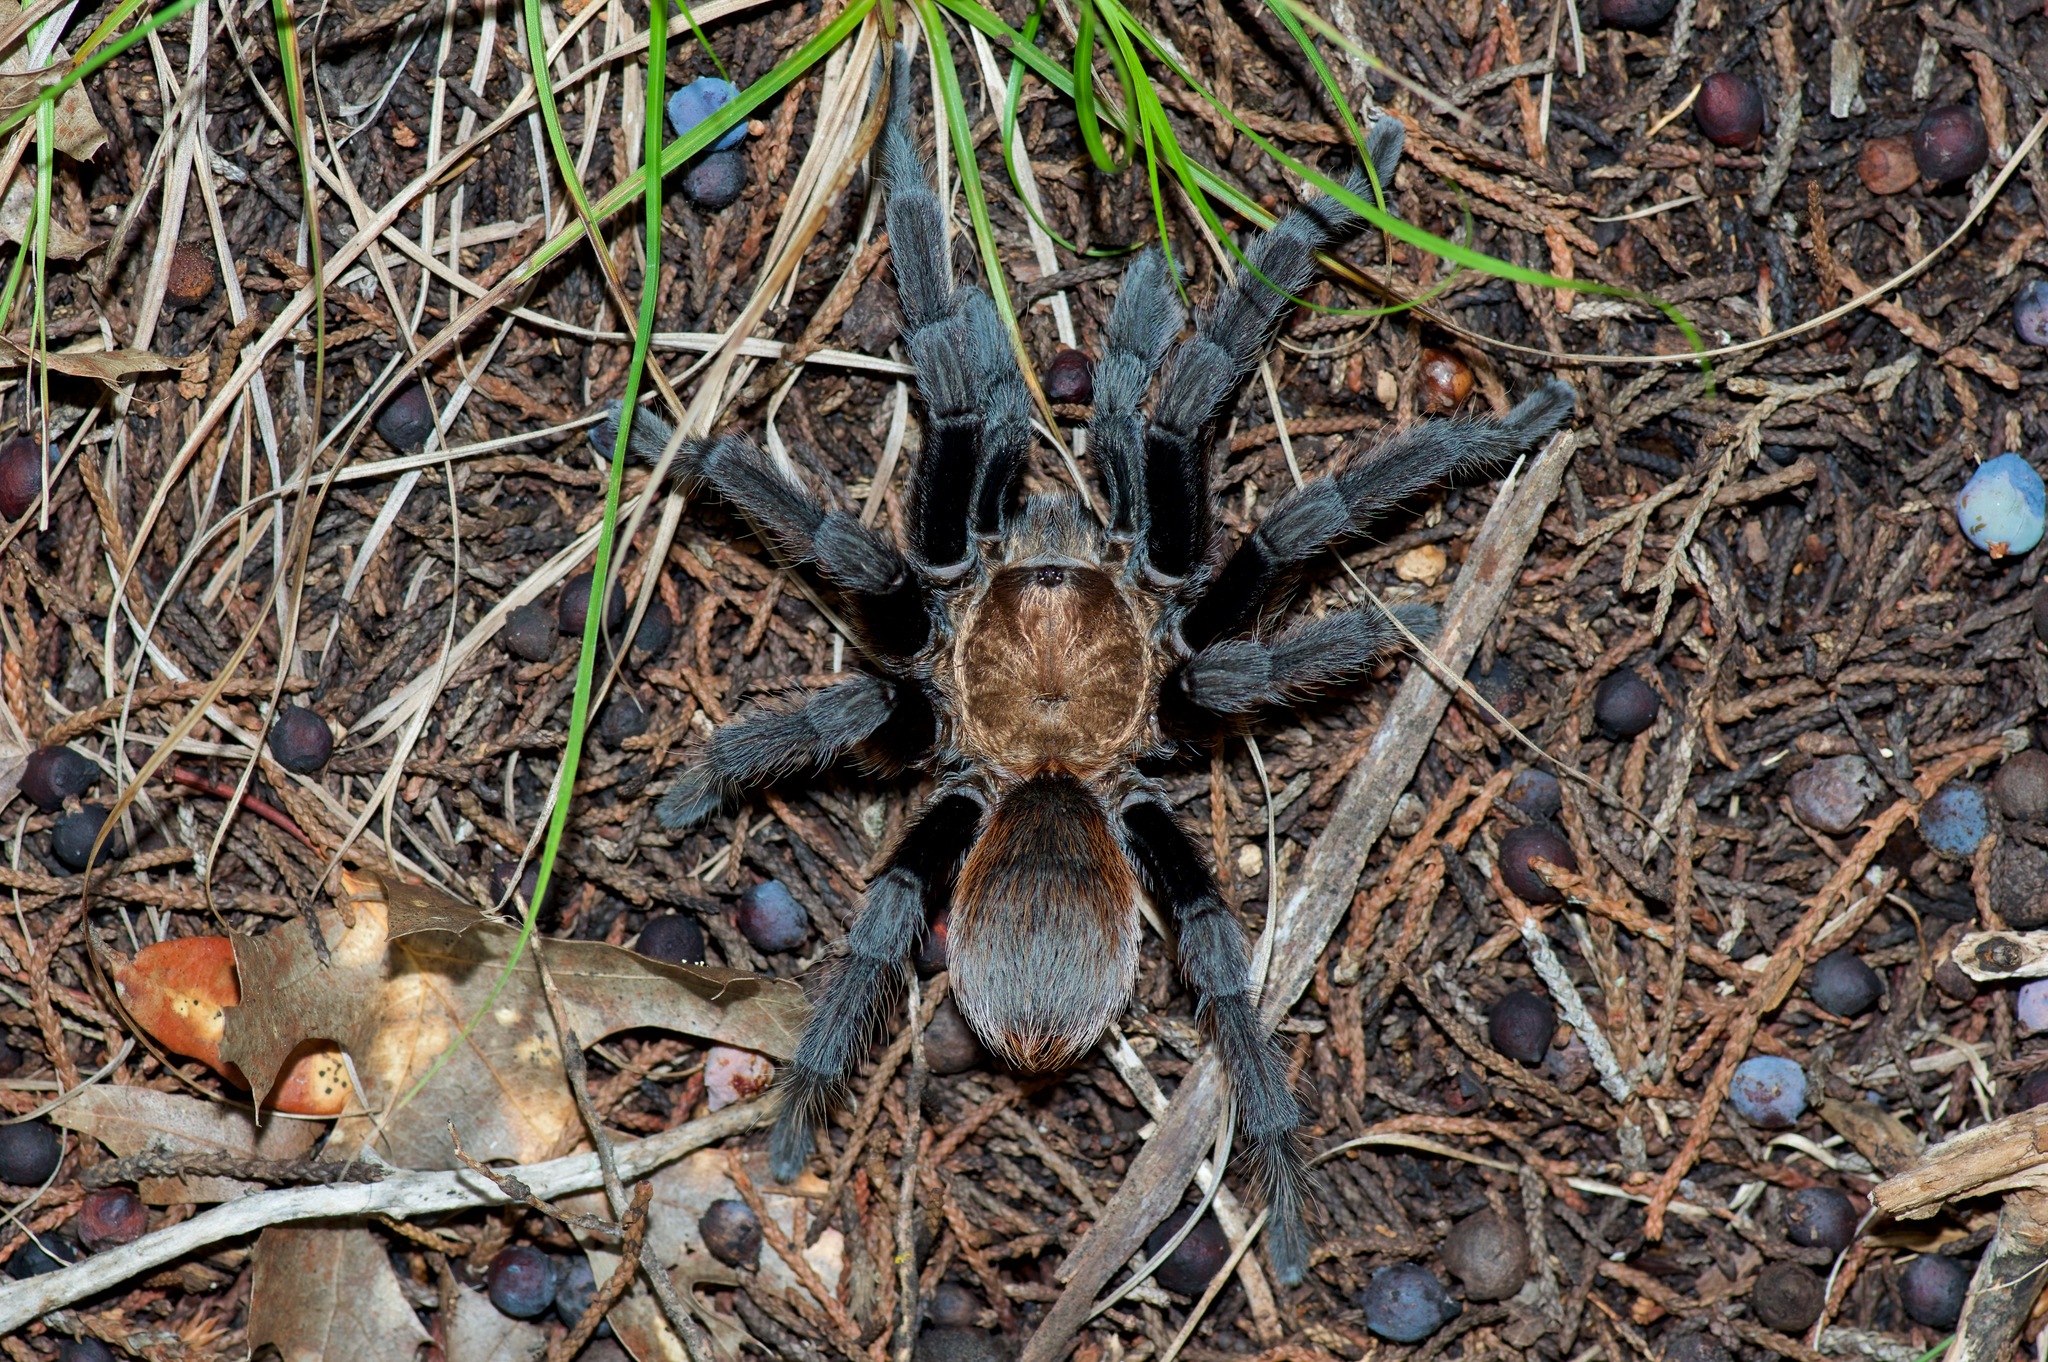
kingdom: Animalia
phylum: Arthropoda
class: Arachnida
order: Araneae
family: Theraphosidae
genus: Aphonopelma
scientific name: Aphonopelma hentzi
